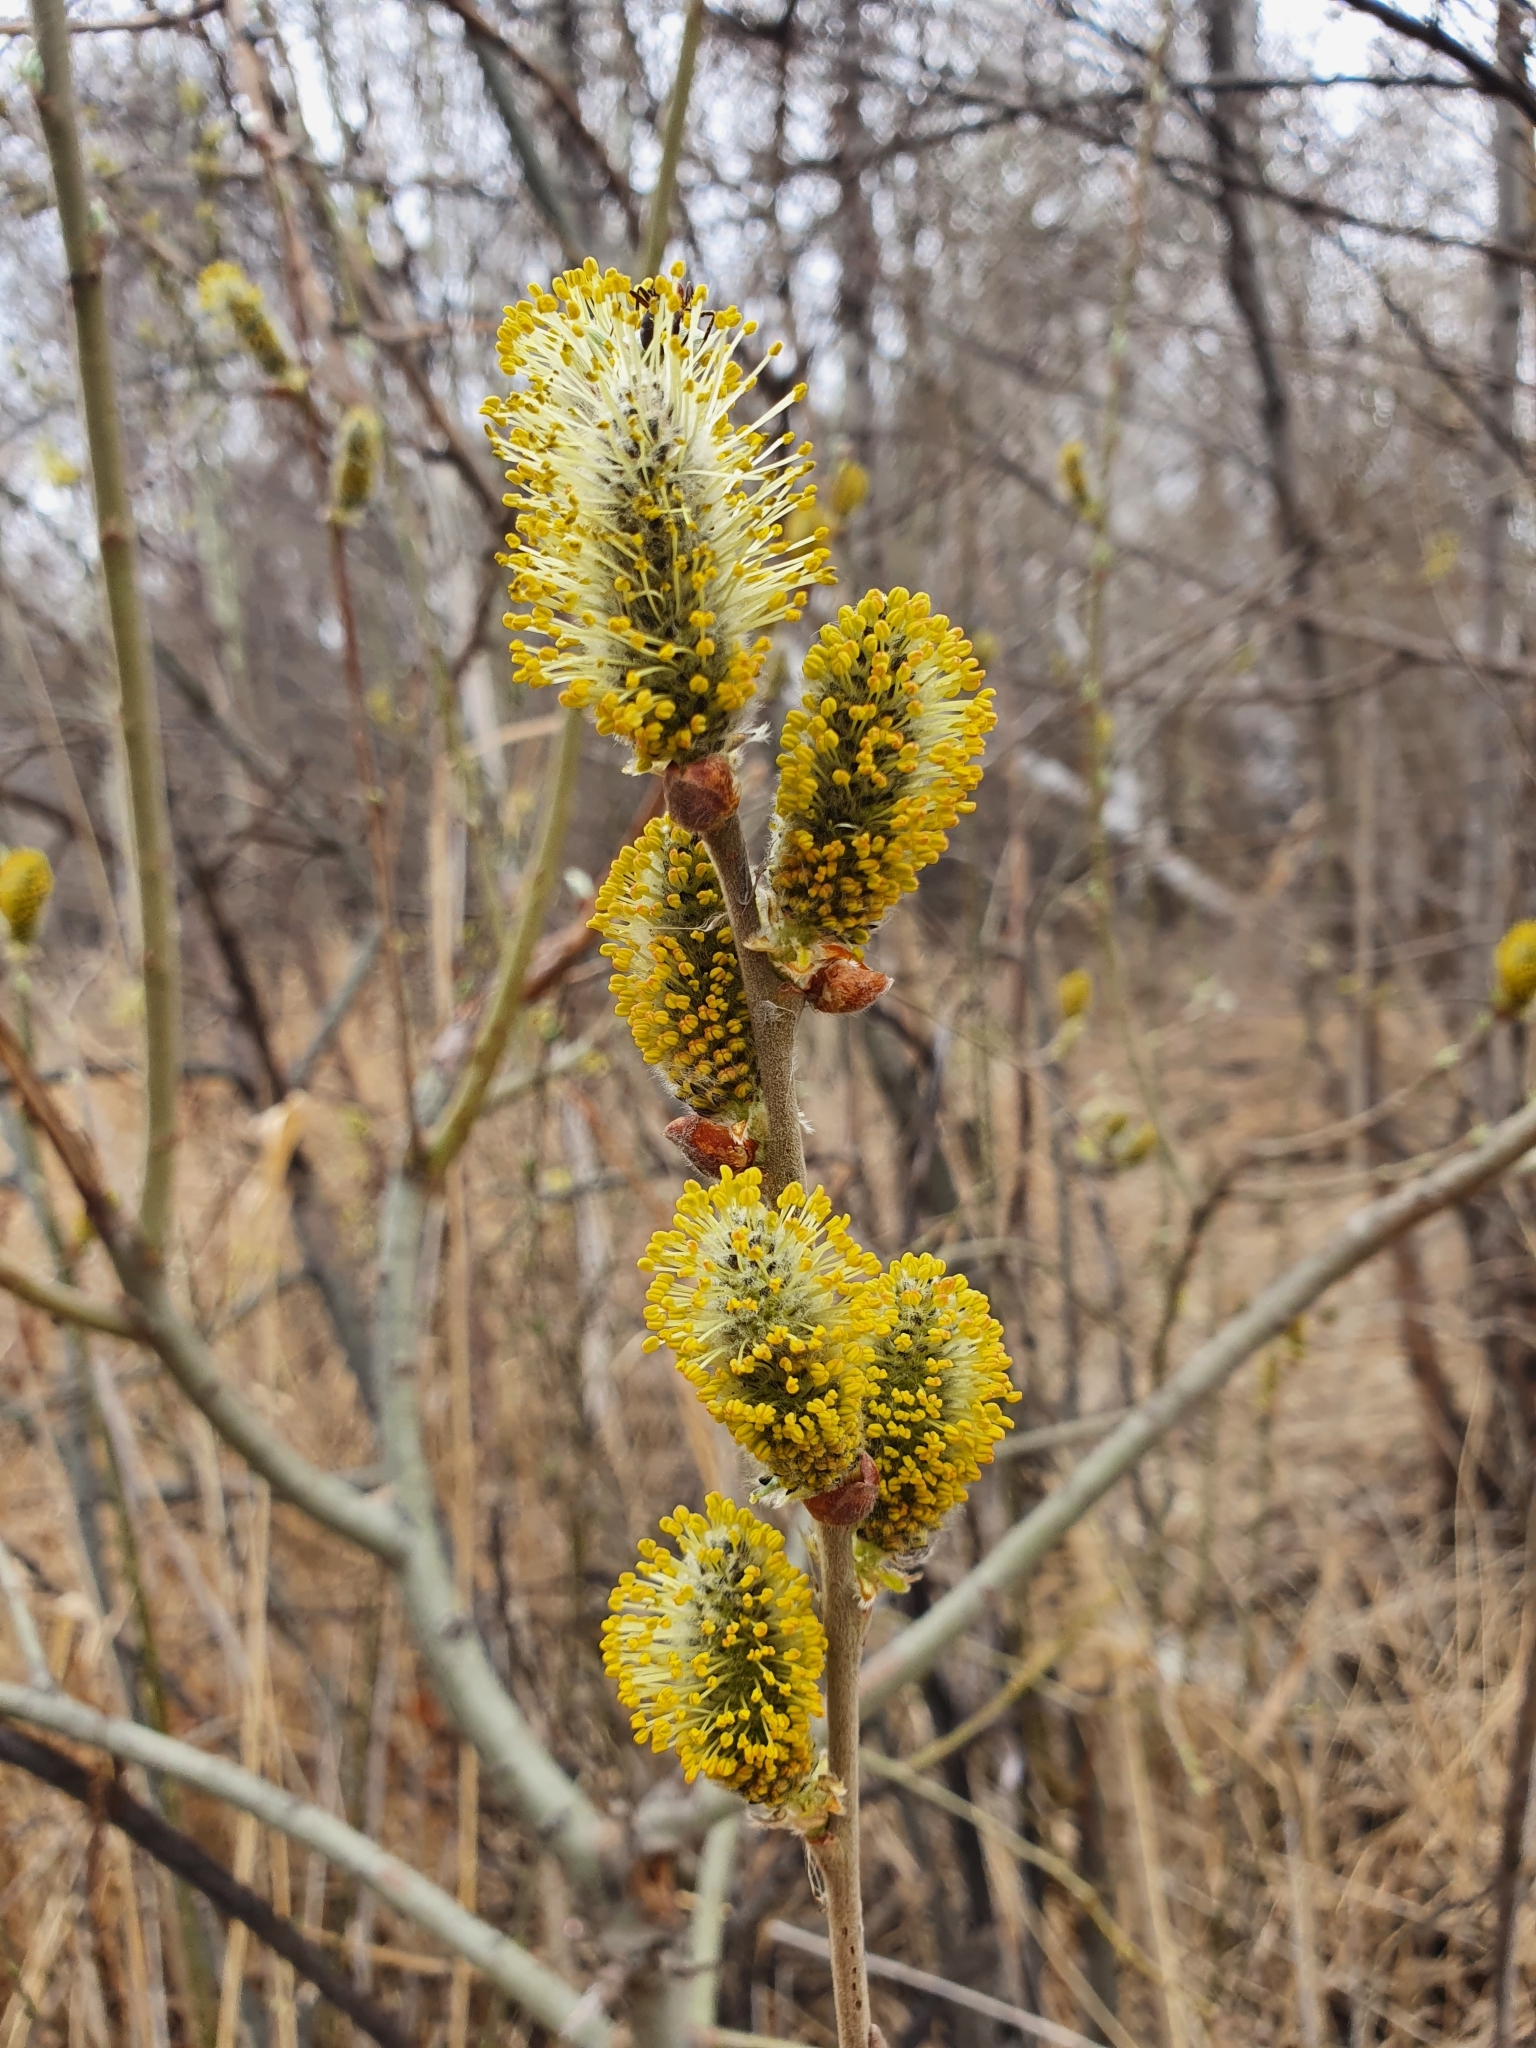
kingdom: Plantae
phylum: Tracheophyta
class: Magnoliopsida
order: Malpighiales
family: Salicaceae
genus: Salix
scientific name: Salix caprea
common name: Goat willow
